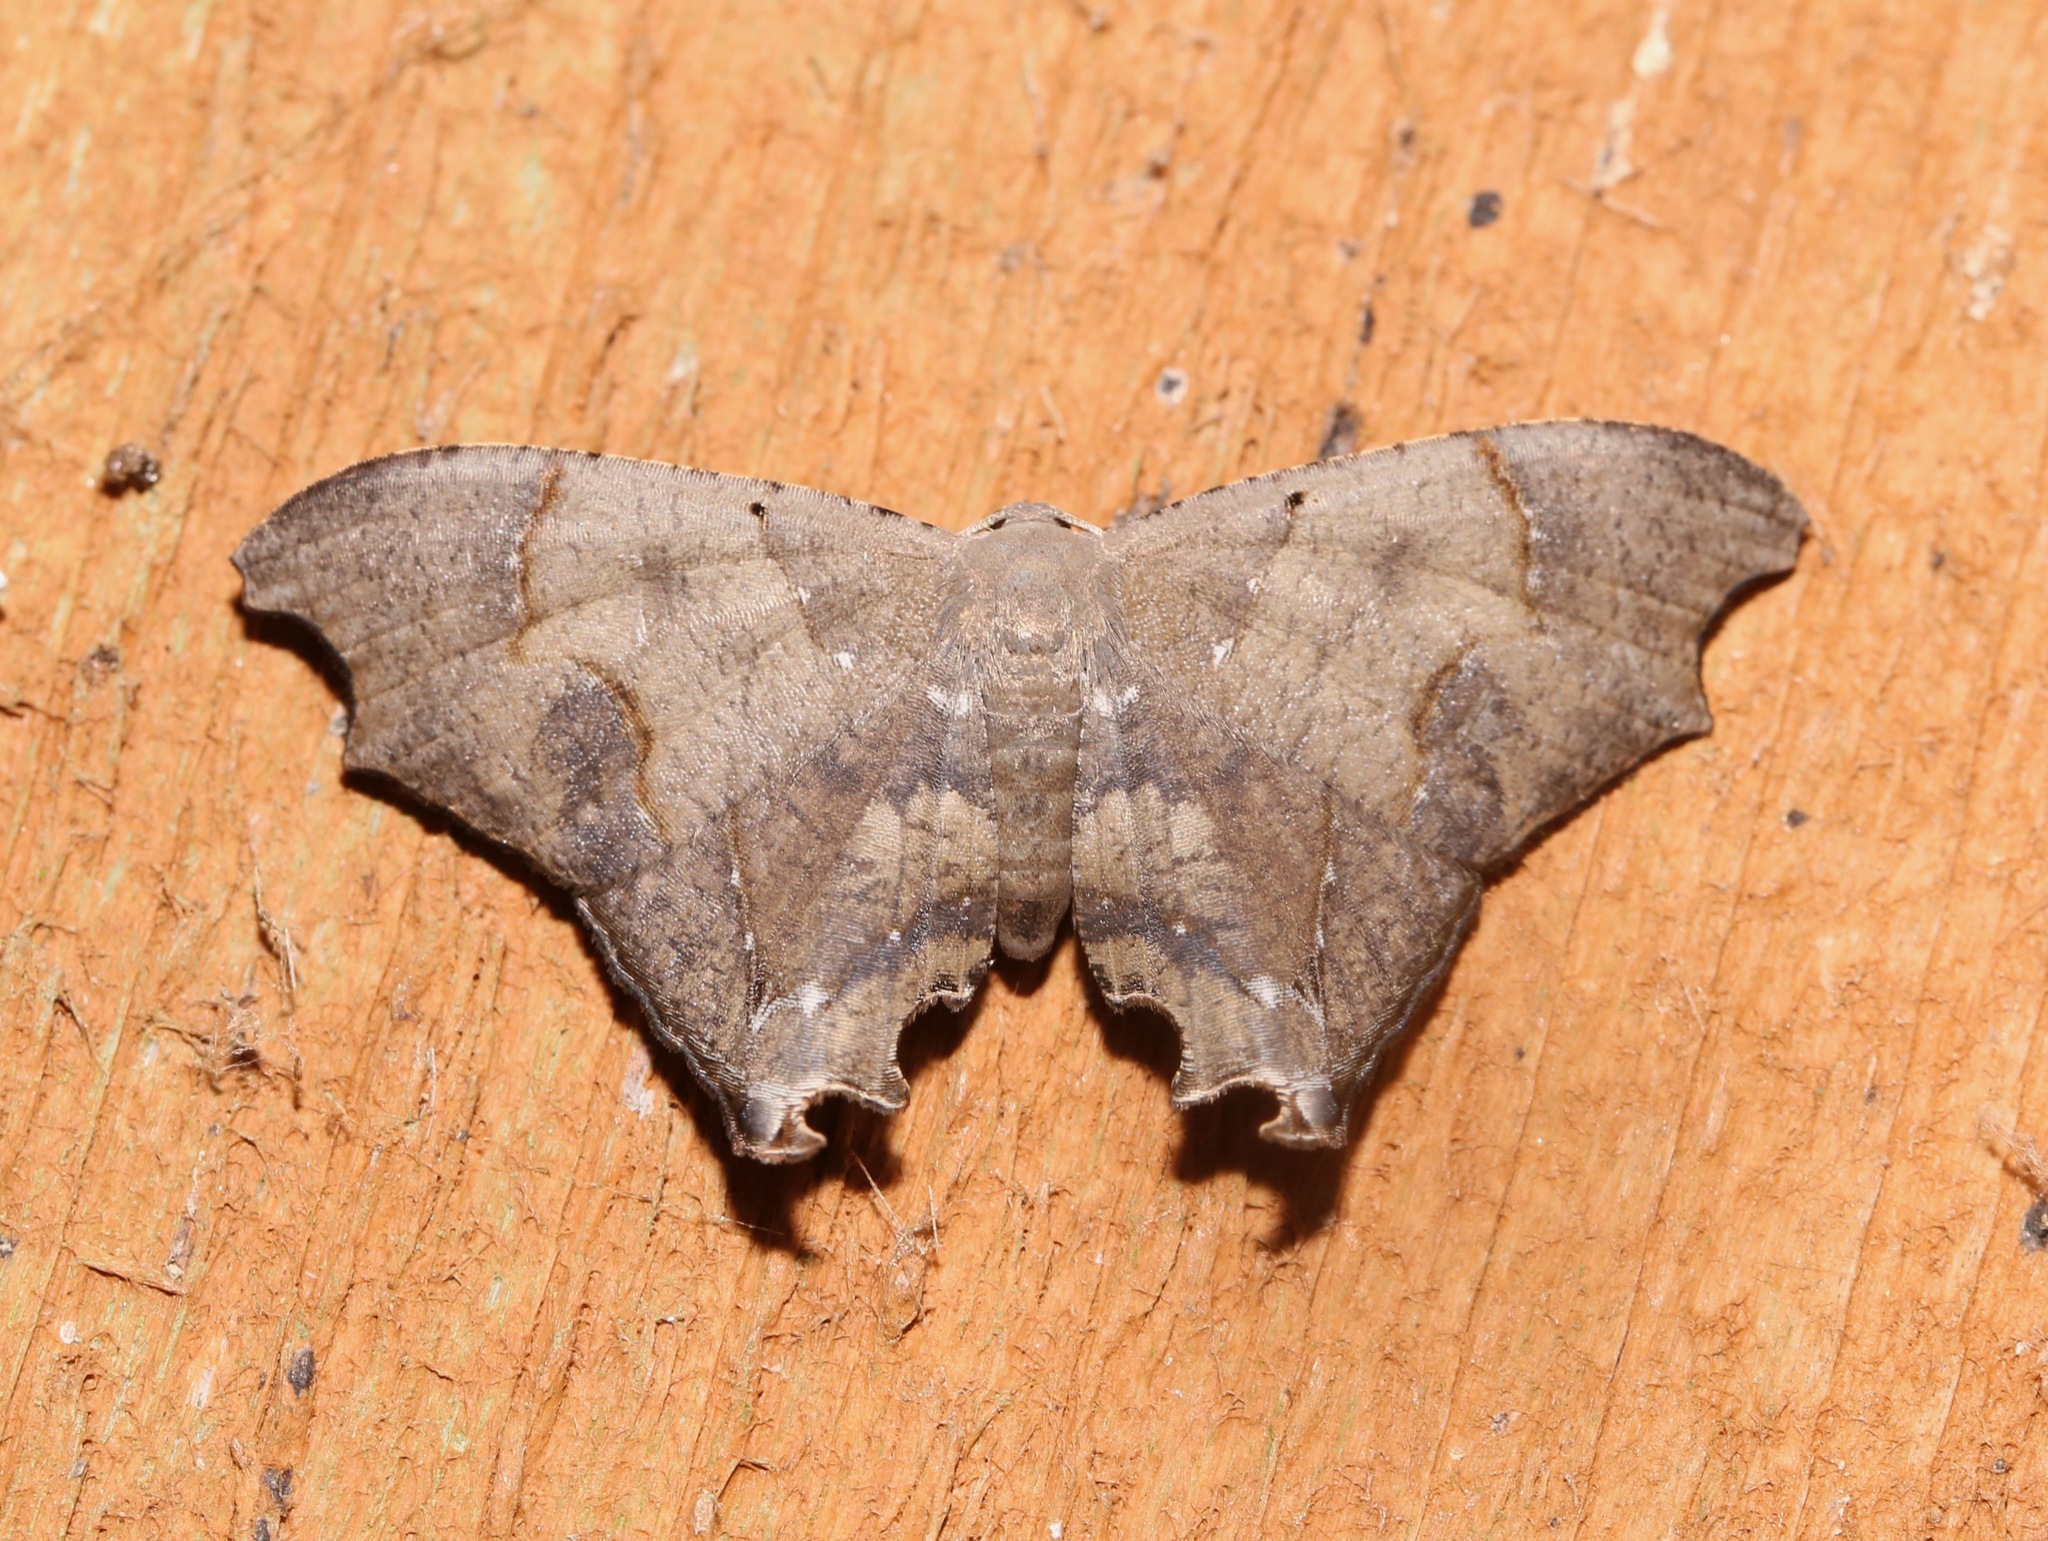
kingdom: Animalia
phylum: Arthropoda
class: Insecta
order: Lepidoptera
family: Uraniidae
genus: Trotorhombia
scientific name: Trotorhombia metachromata
